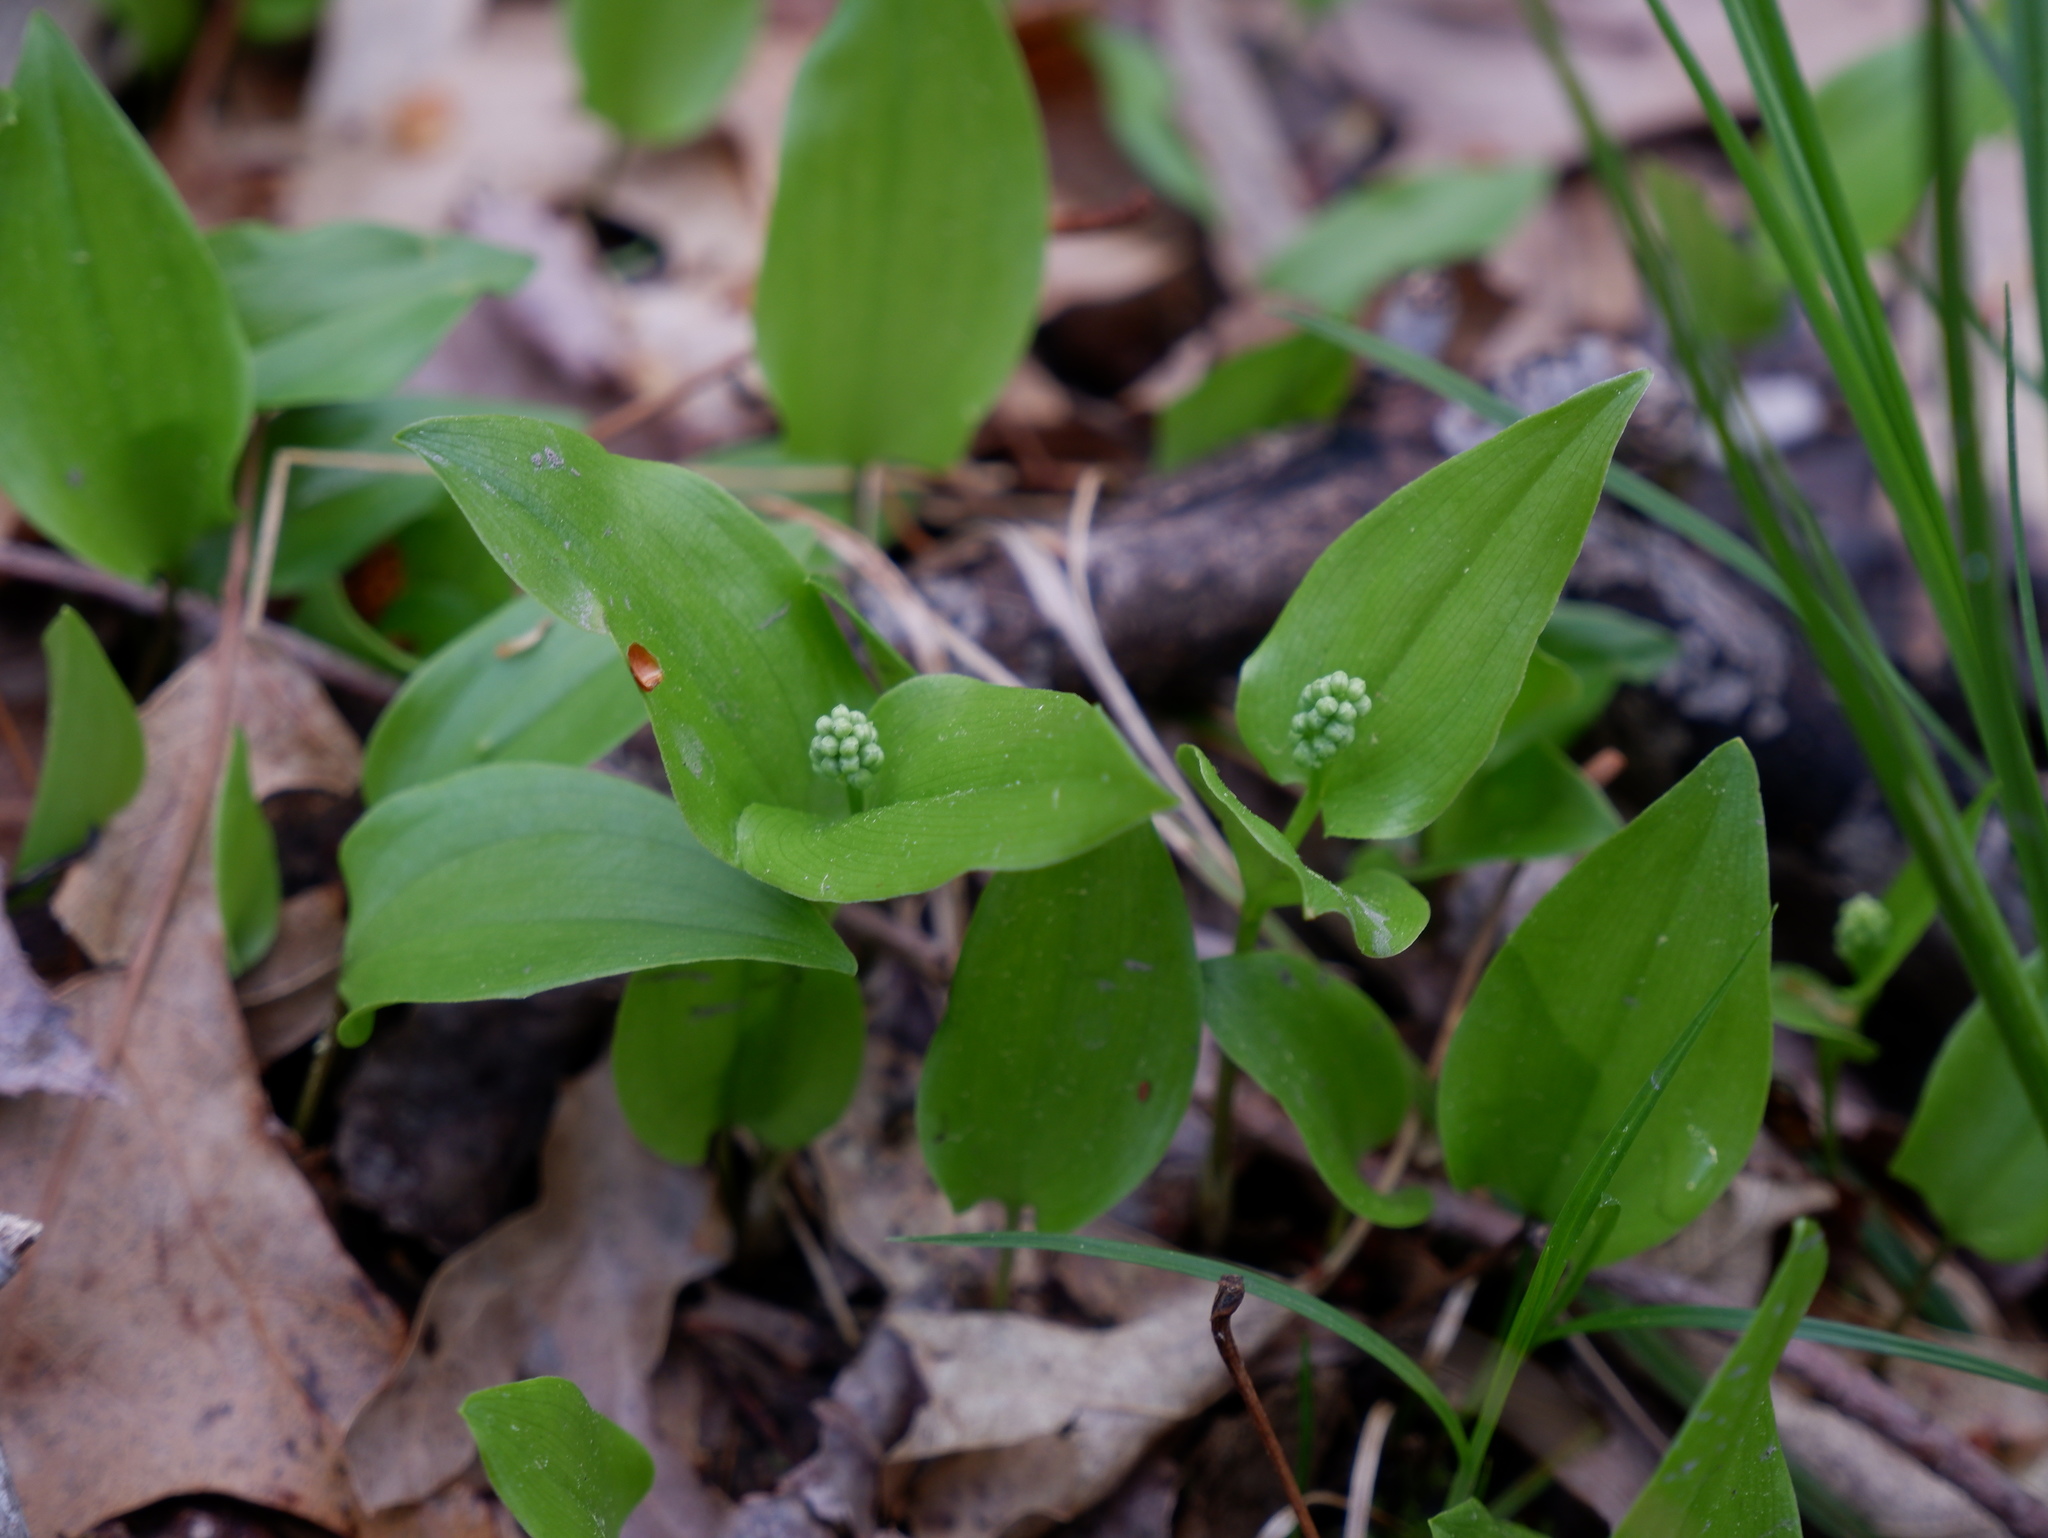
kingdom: Plantae
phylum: Tracheophyta
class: Liliopsida
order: Asparagales
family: Asparagaceae
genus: Maianthemum
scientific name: Maianthemum canadense
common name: False lily-of-the-valley
